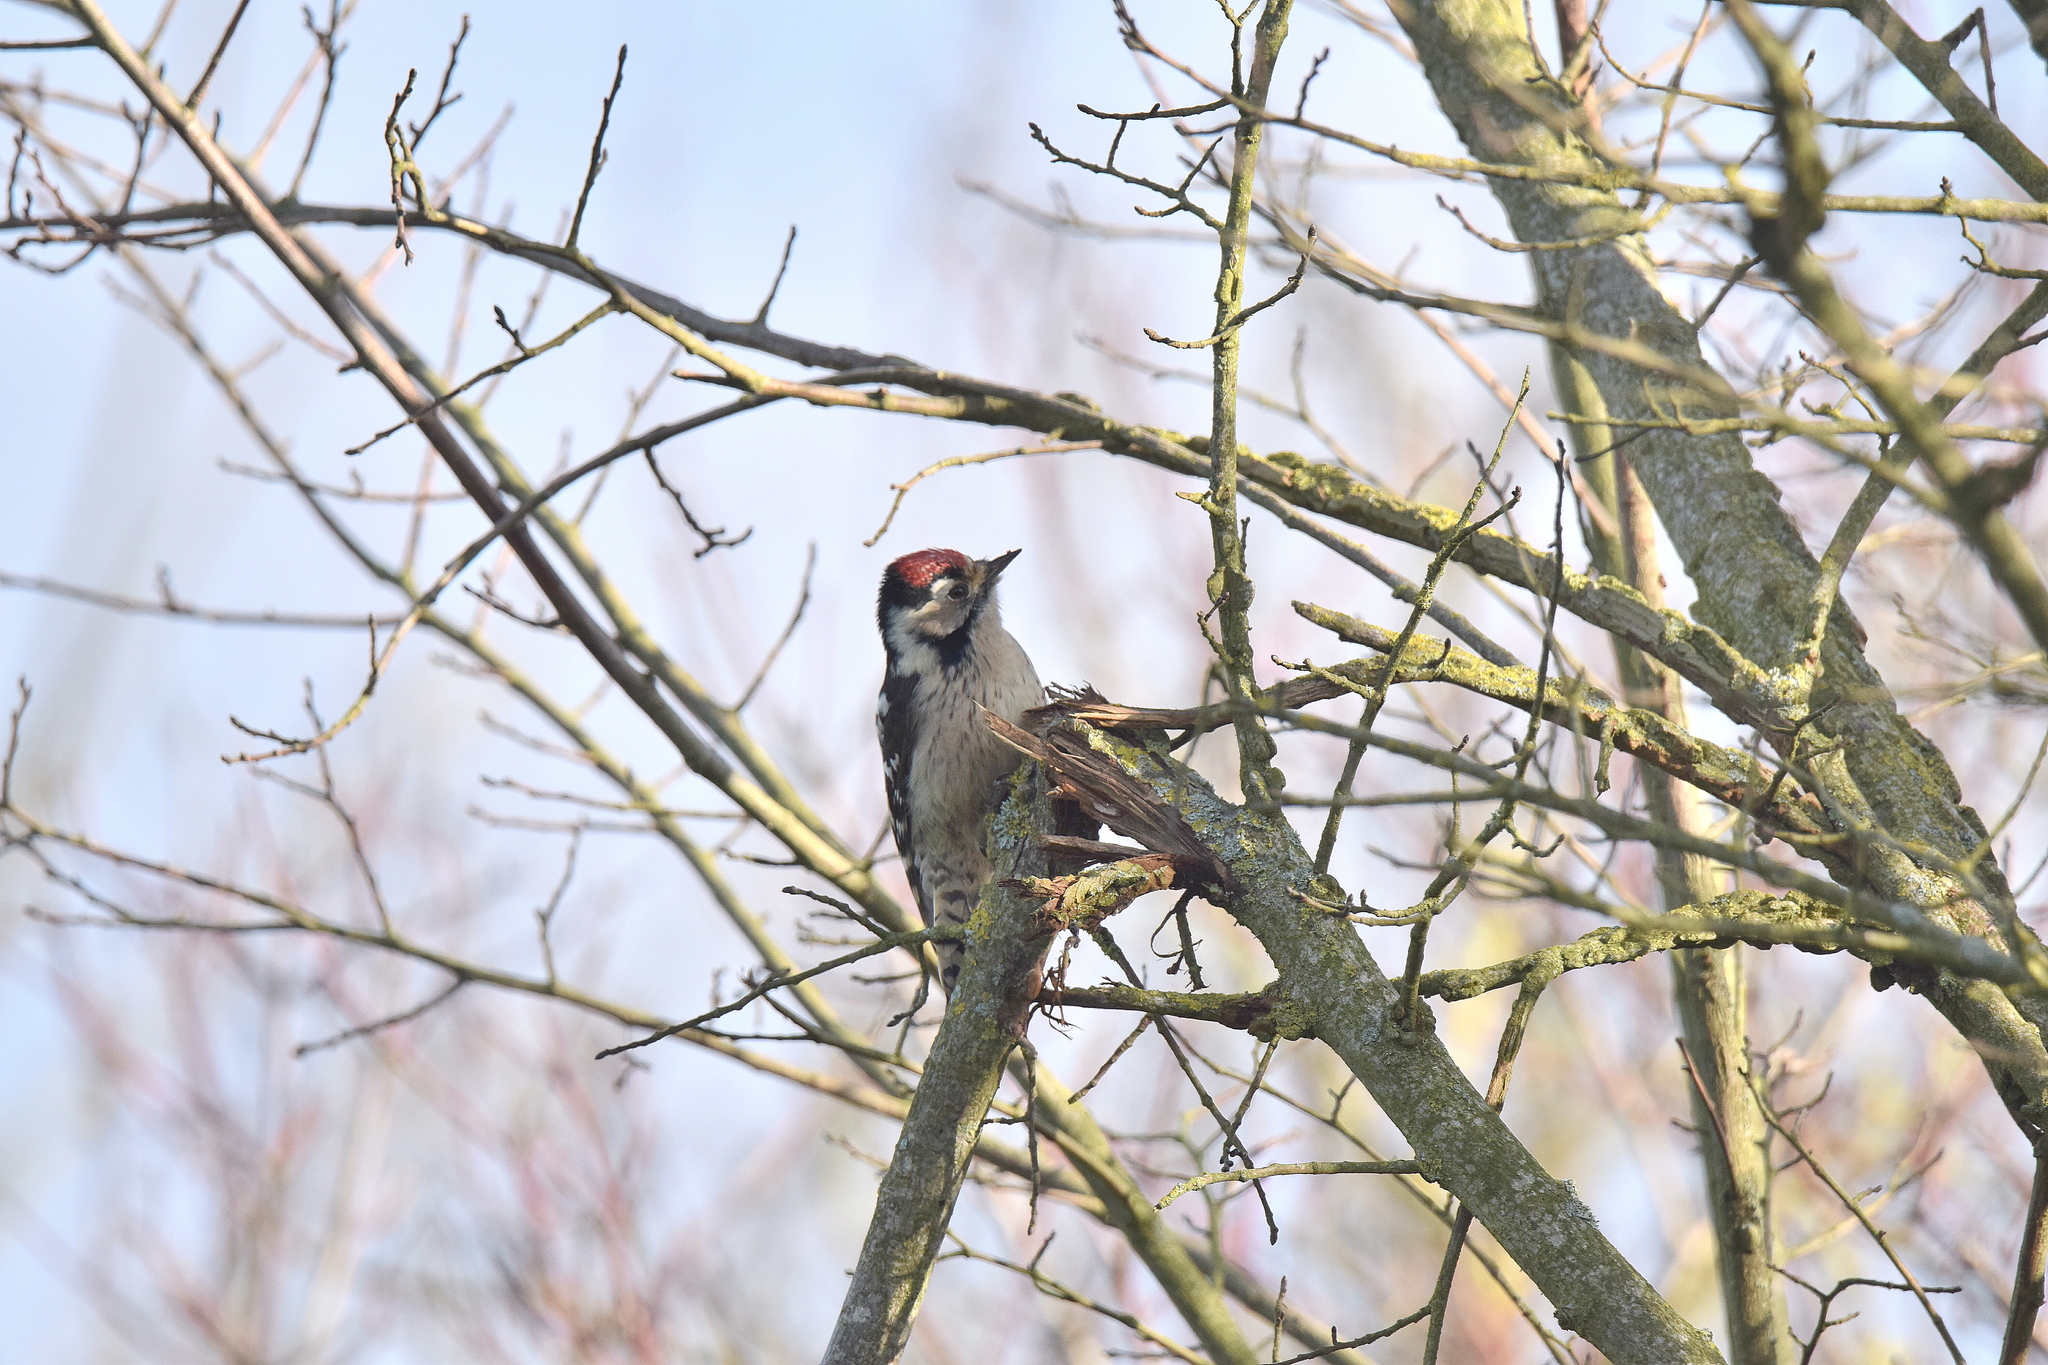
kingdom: Animalia
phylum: Chordata
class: Aves
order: Piciformes
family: Picidae
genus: Dryobates
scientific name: Dryobates minor
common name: Lesser spotted woodpecker
